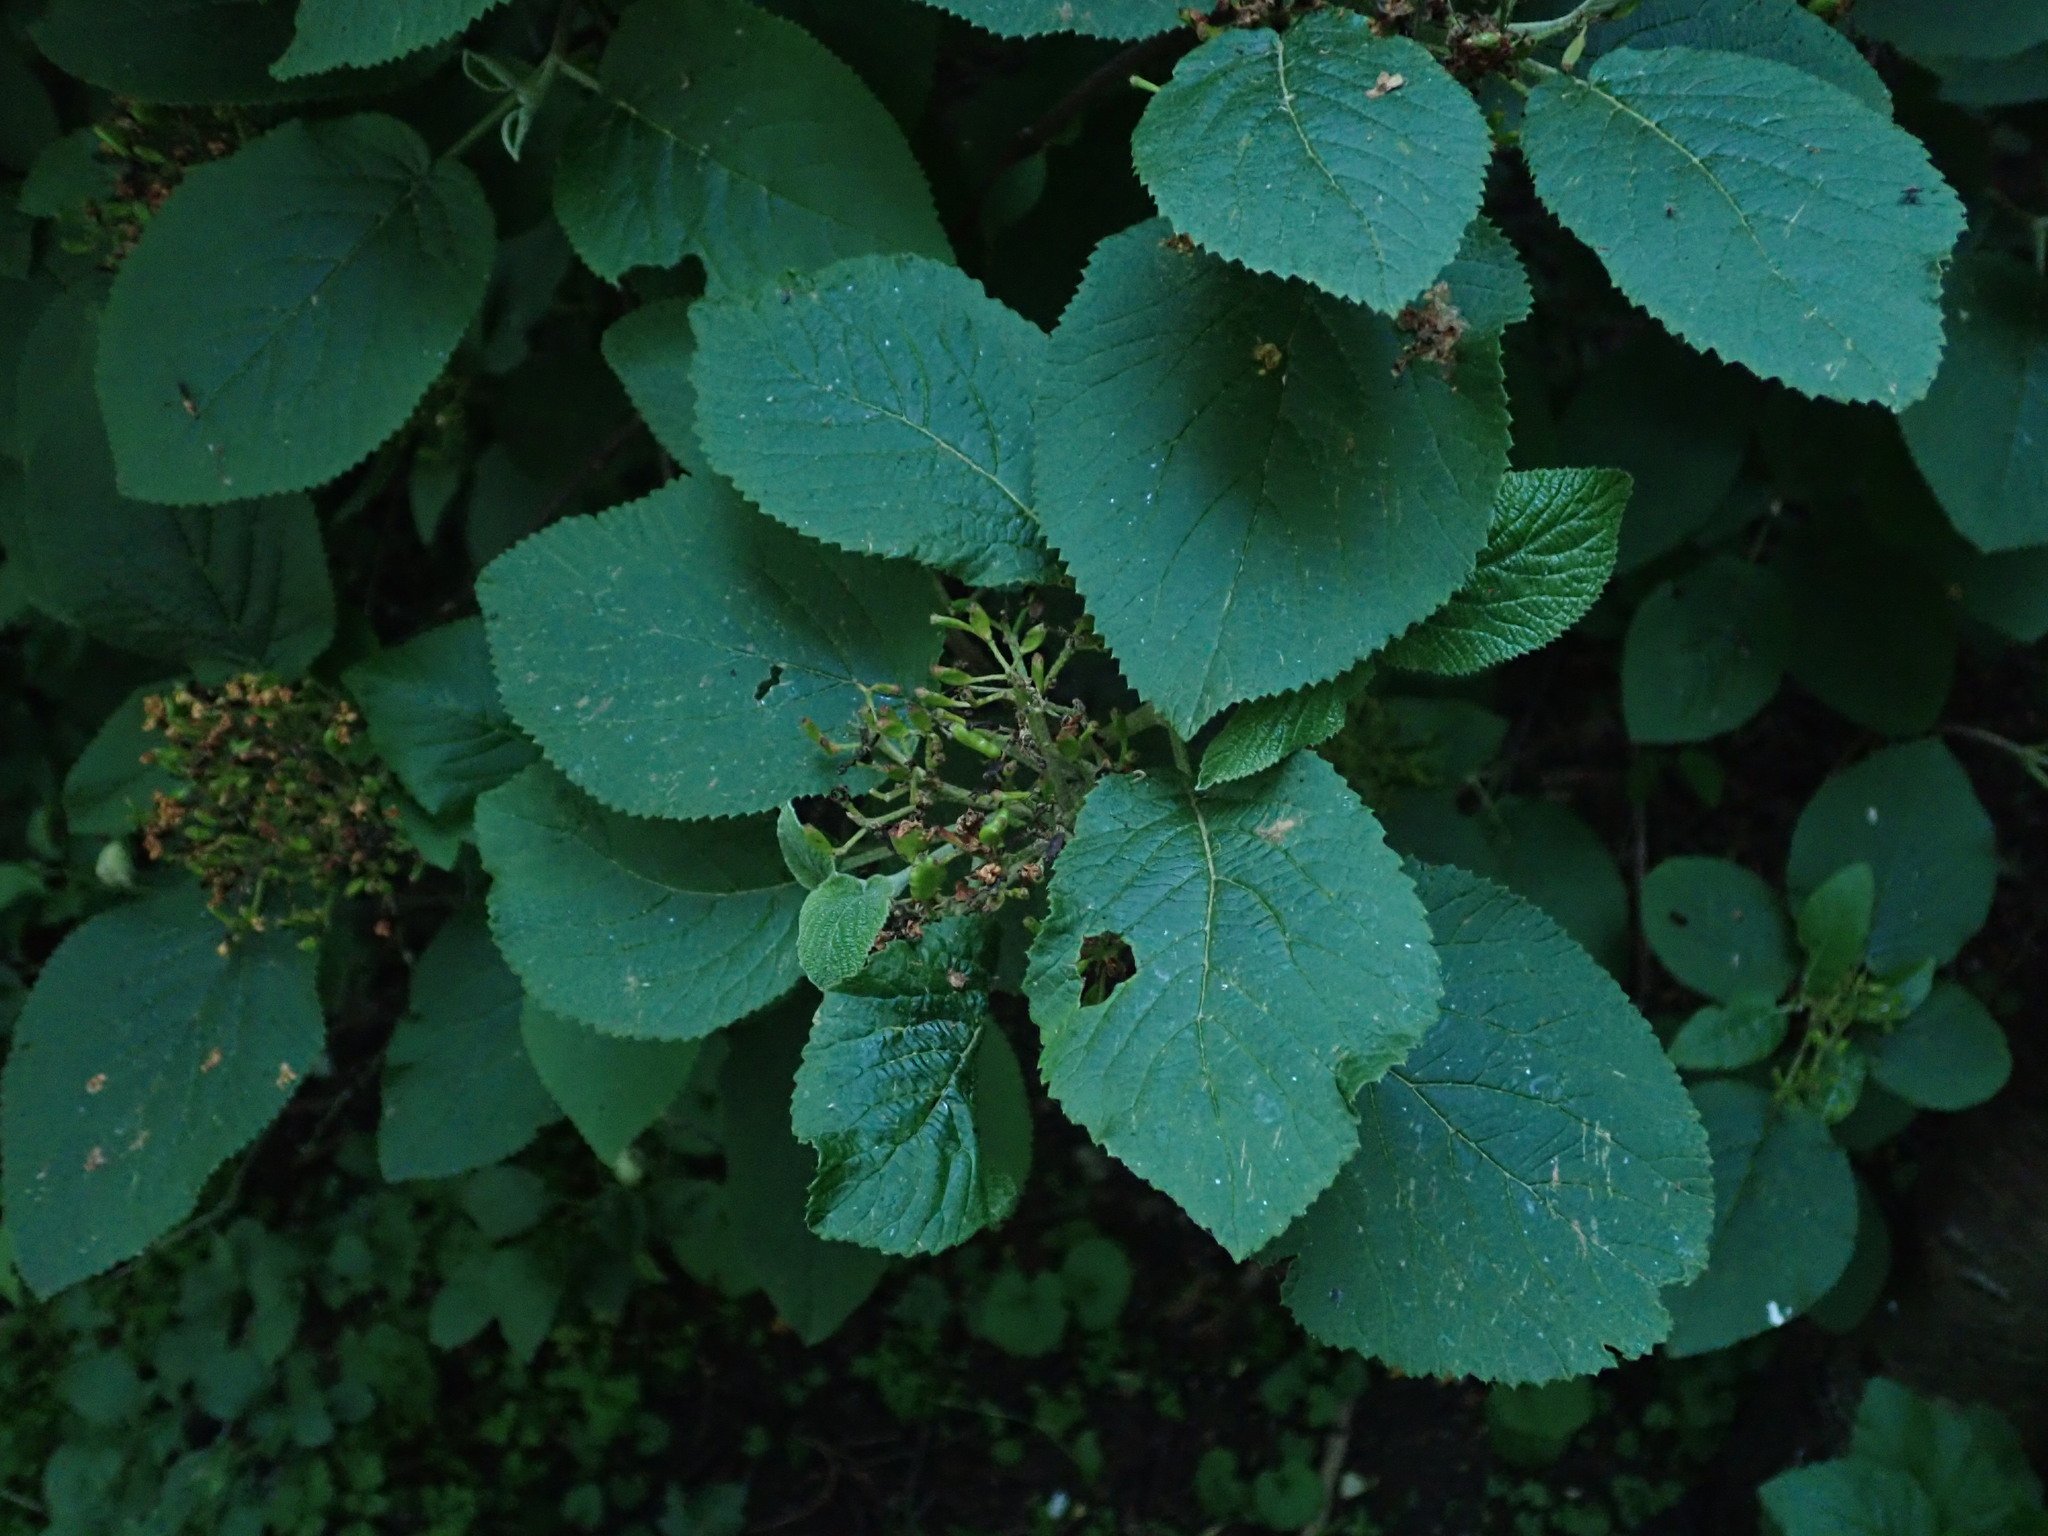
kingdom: Plantae
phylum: Tracheophyta
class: Magnoliopsida
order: Dipsacales
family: Viburnaceae
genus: Viburnum
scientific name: Viburnum lantana
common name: Wayfaring tree
